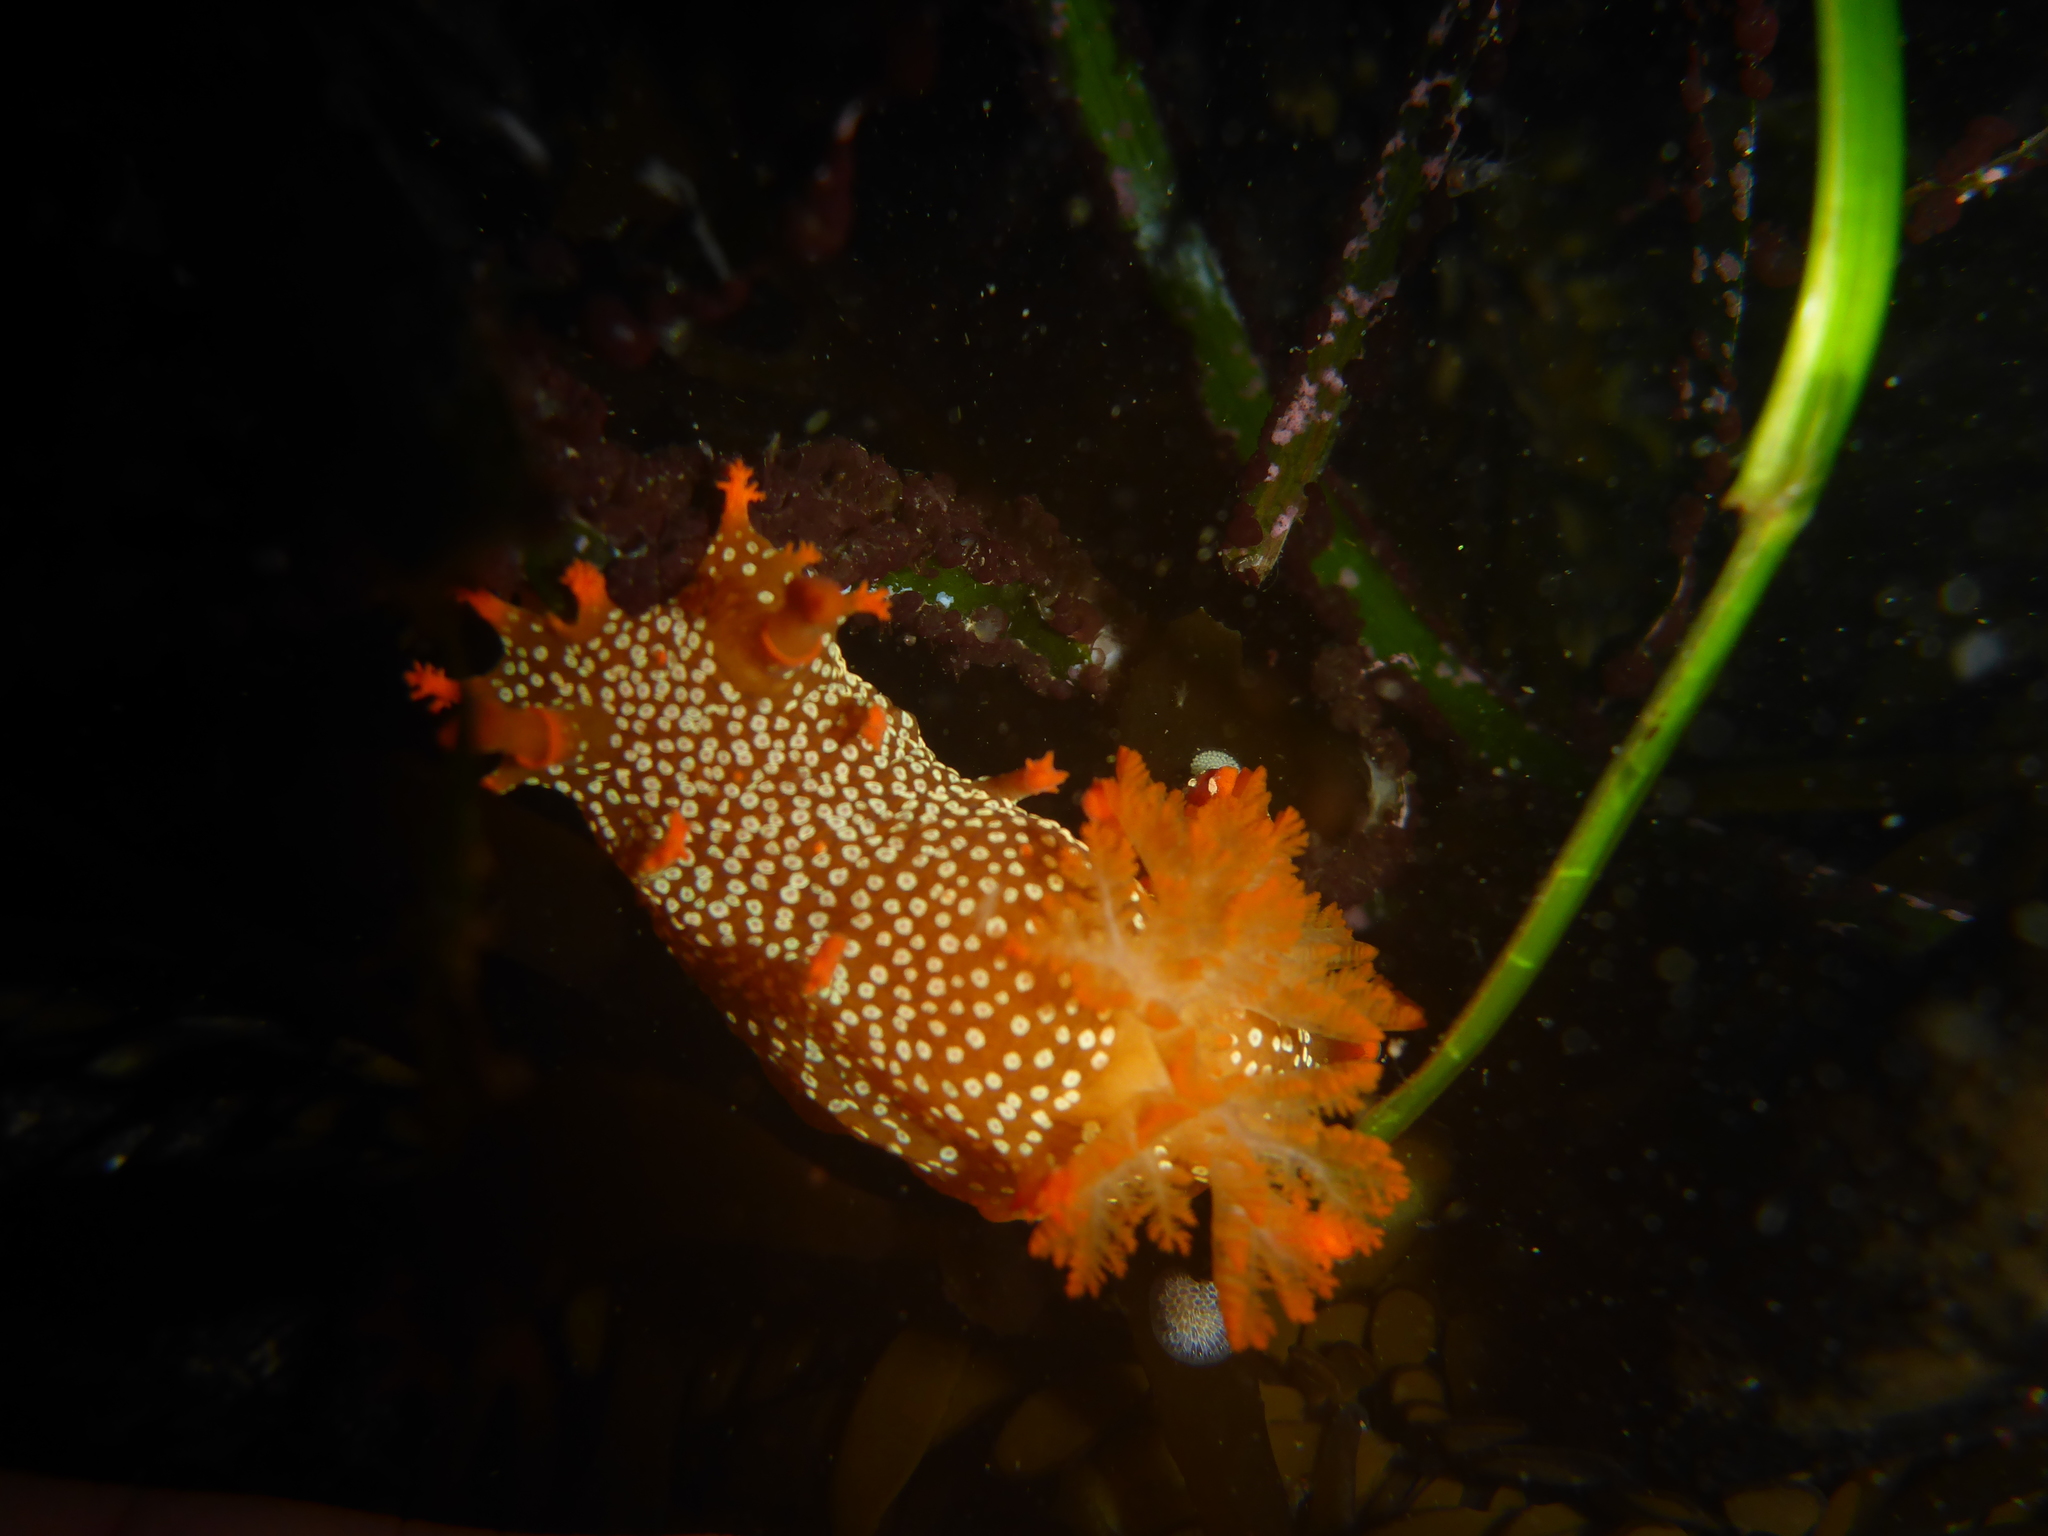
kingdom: Animalia
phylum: Mollusca
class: Gastropoda
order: Nudibranchia
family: Polyceridae
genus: Triopha
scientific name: Triopha maculata
